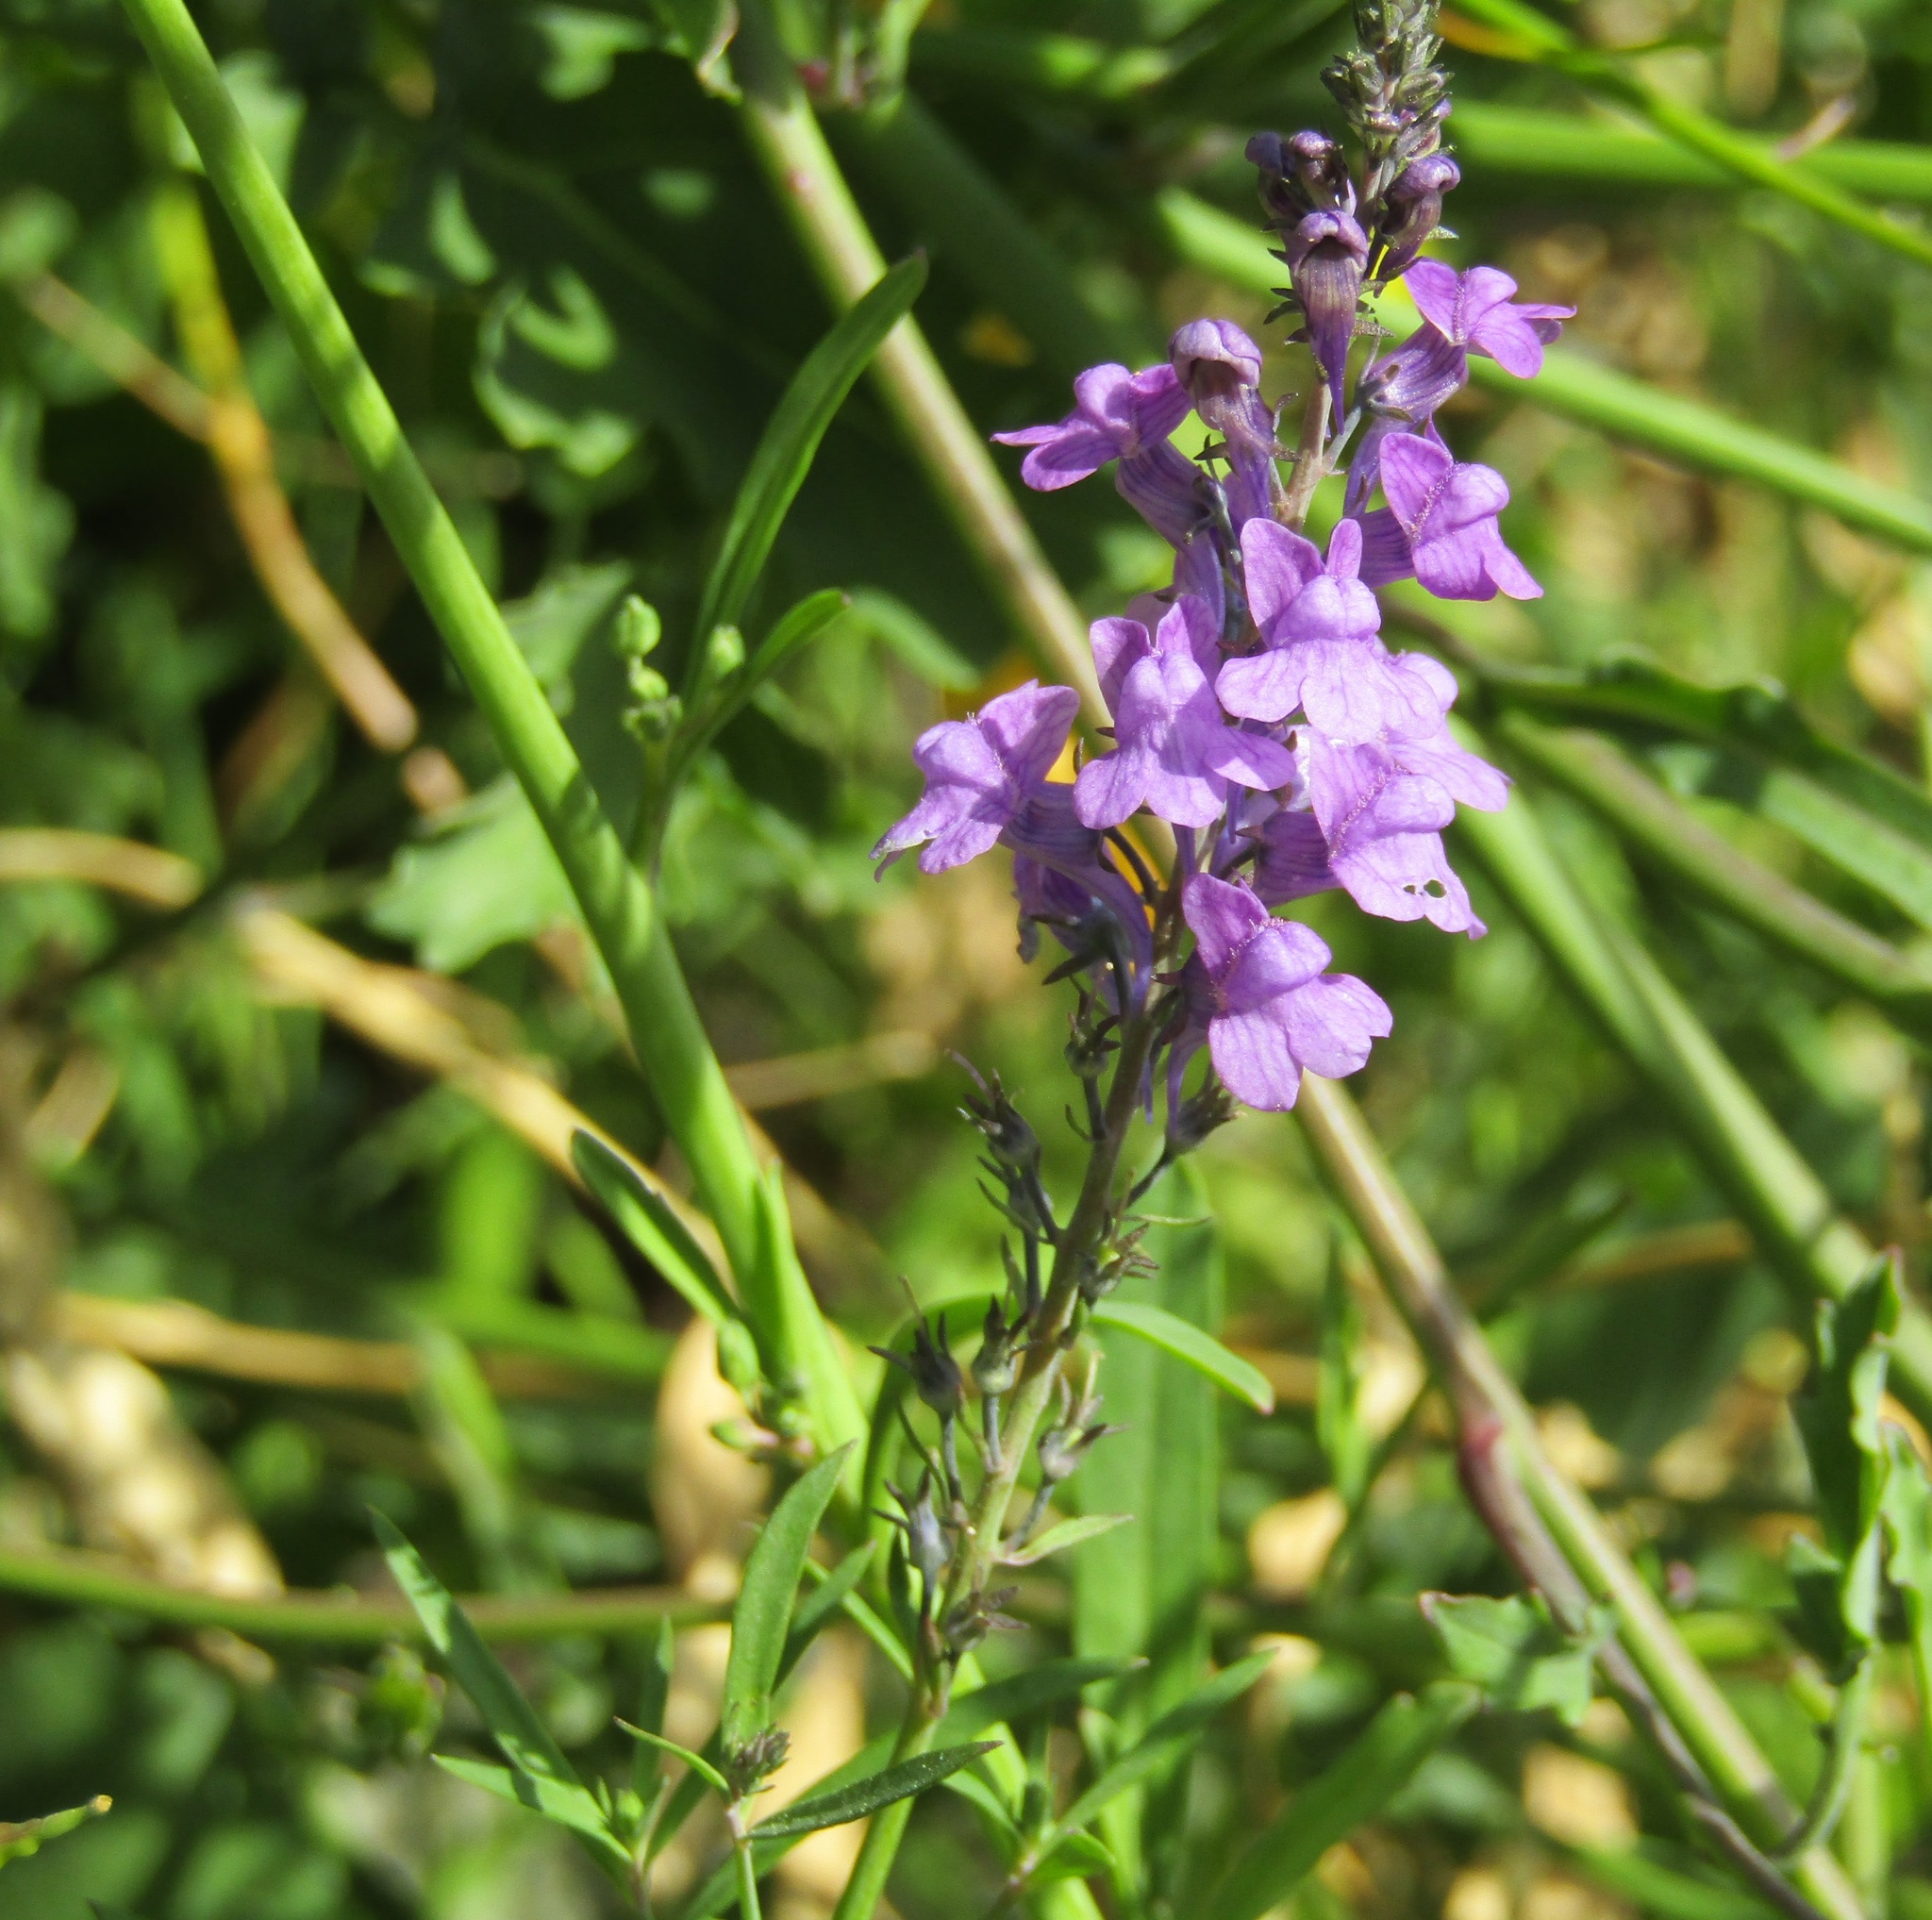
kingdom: Plantae
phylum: Tracheophyta
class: Magnoliopsida
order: Lamiales
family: Plantaginaceae
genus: Linaria
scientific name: Linaria purpurea
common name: Purple toadflax
